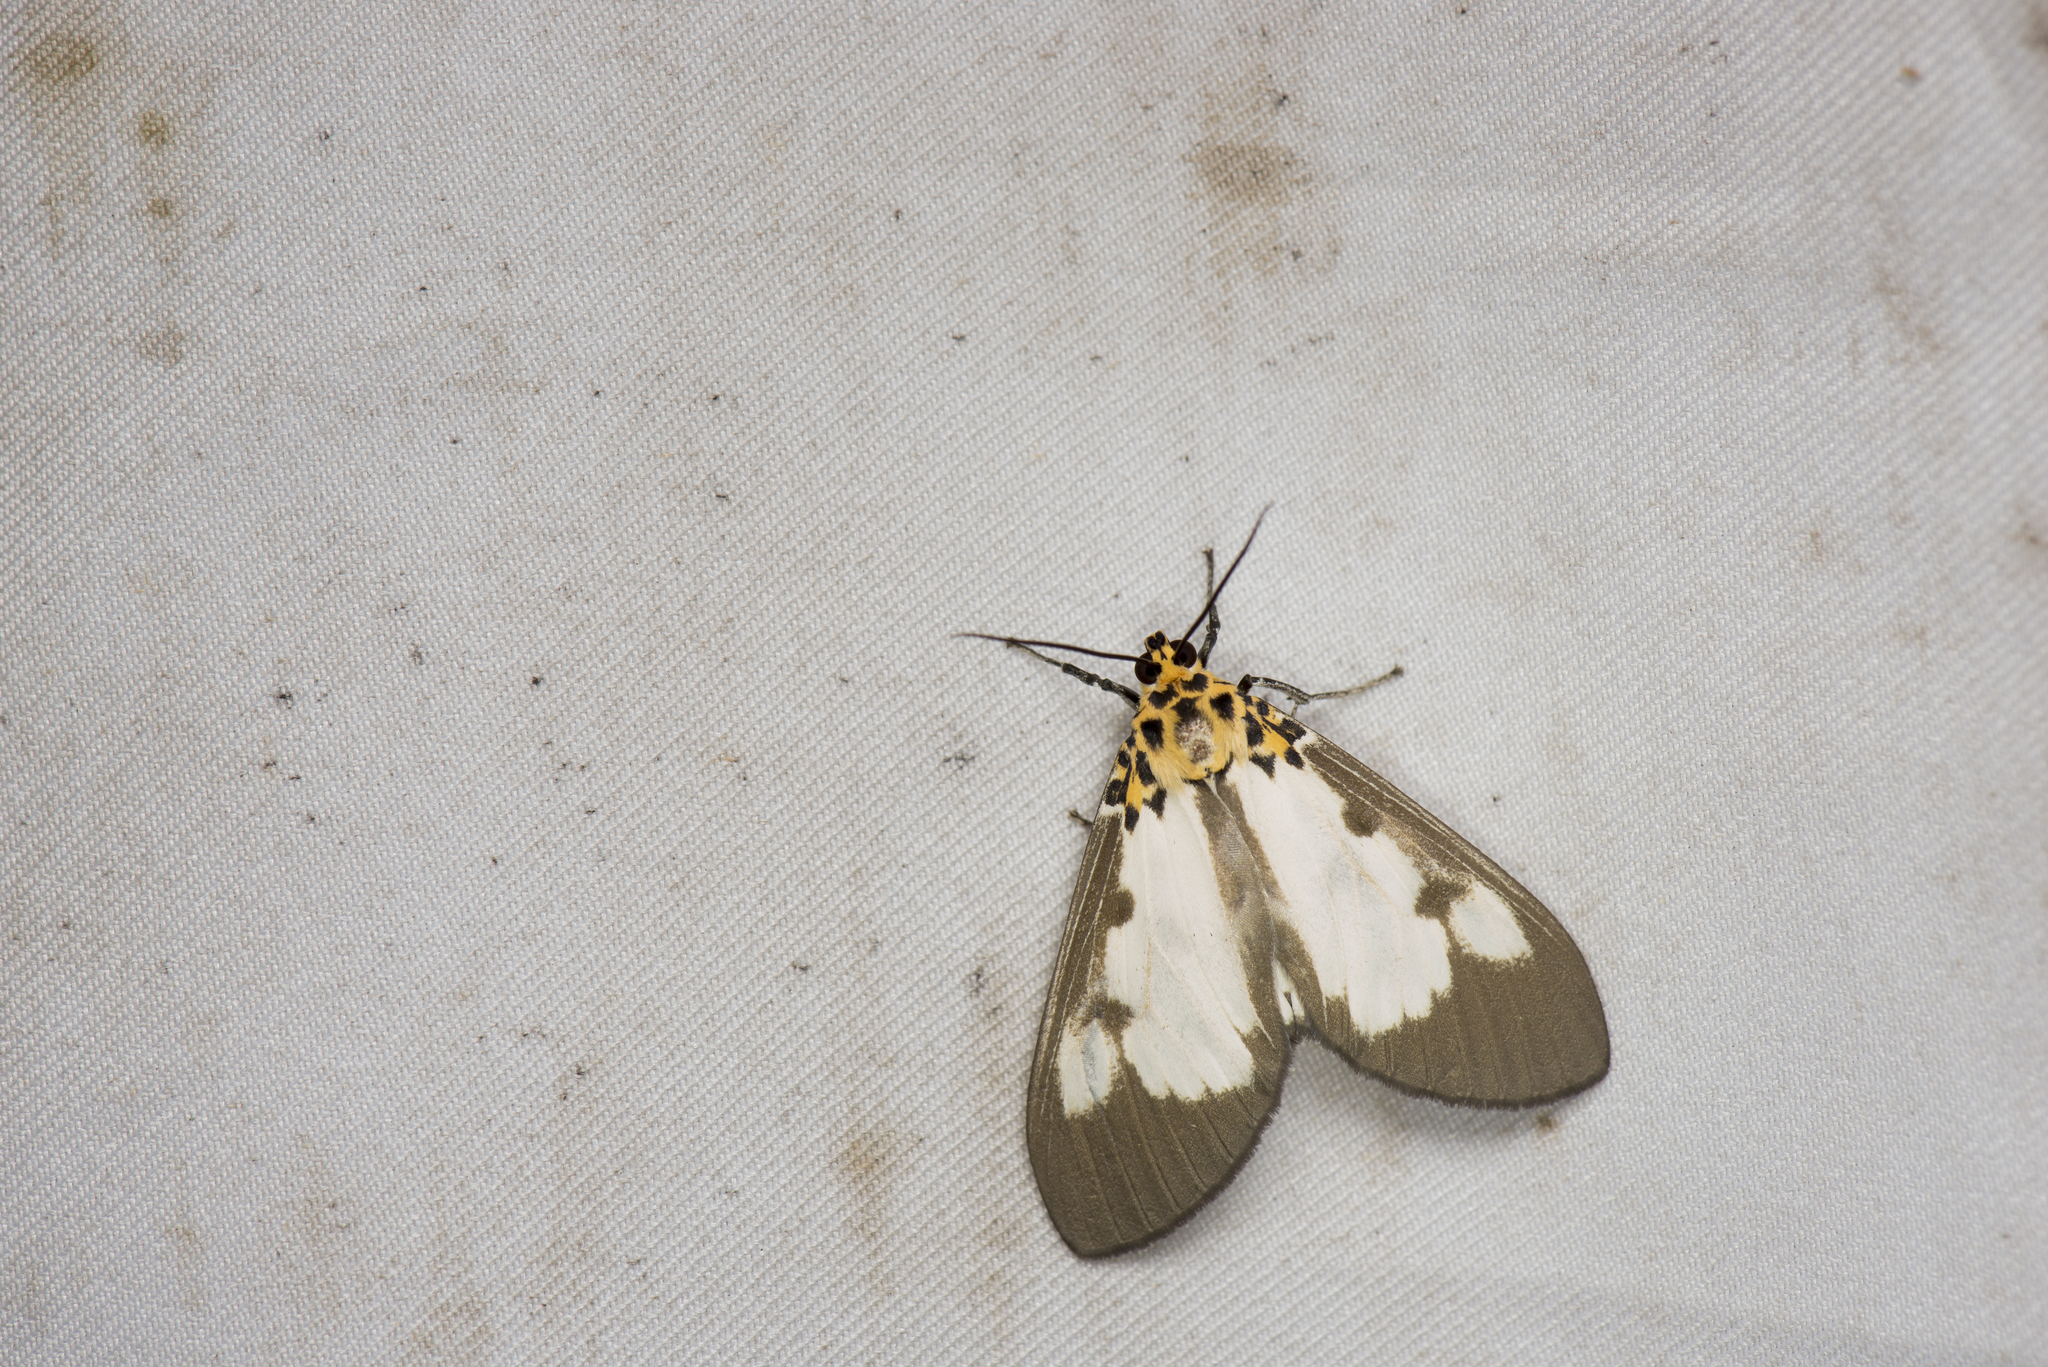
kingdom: Animalia
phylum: Arthropoda
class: Insecta
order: Lepidoptera
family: Erebidae
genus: Asota
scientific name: Asota plana
